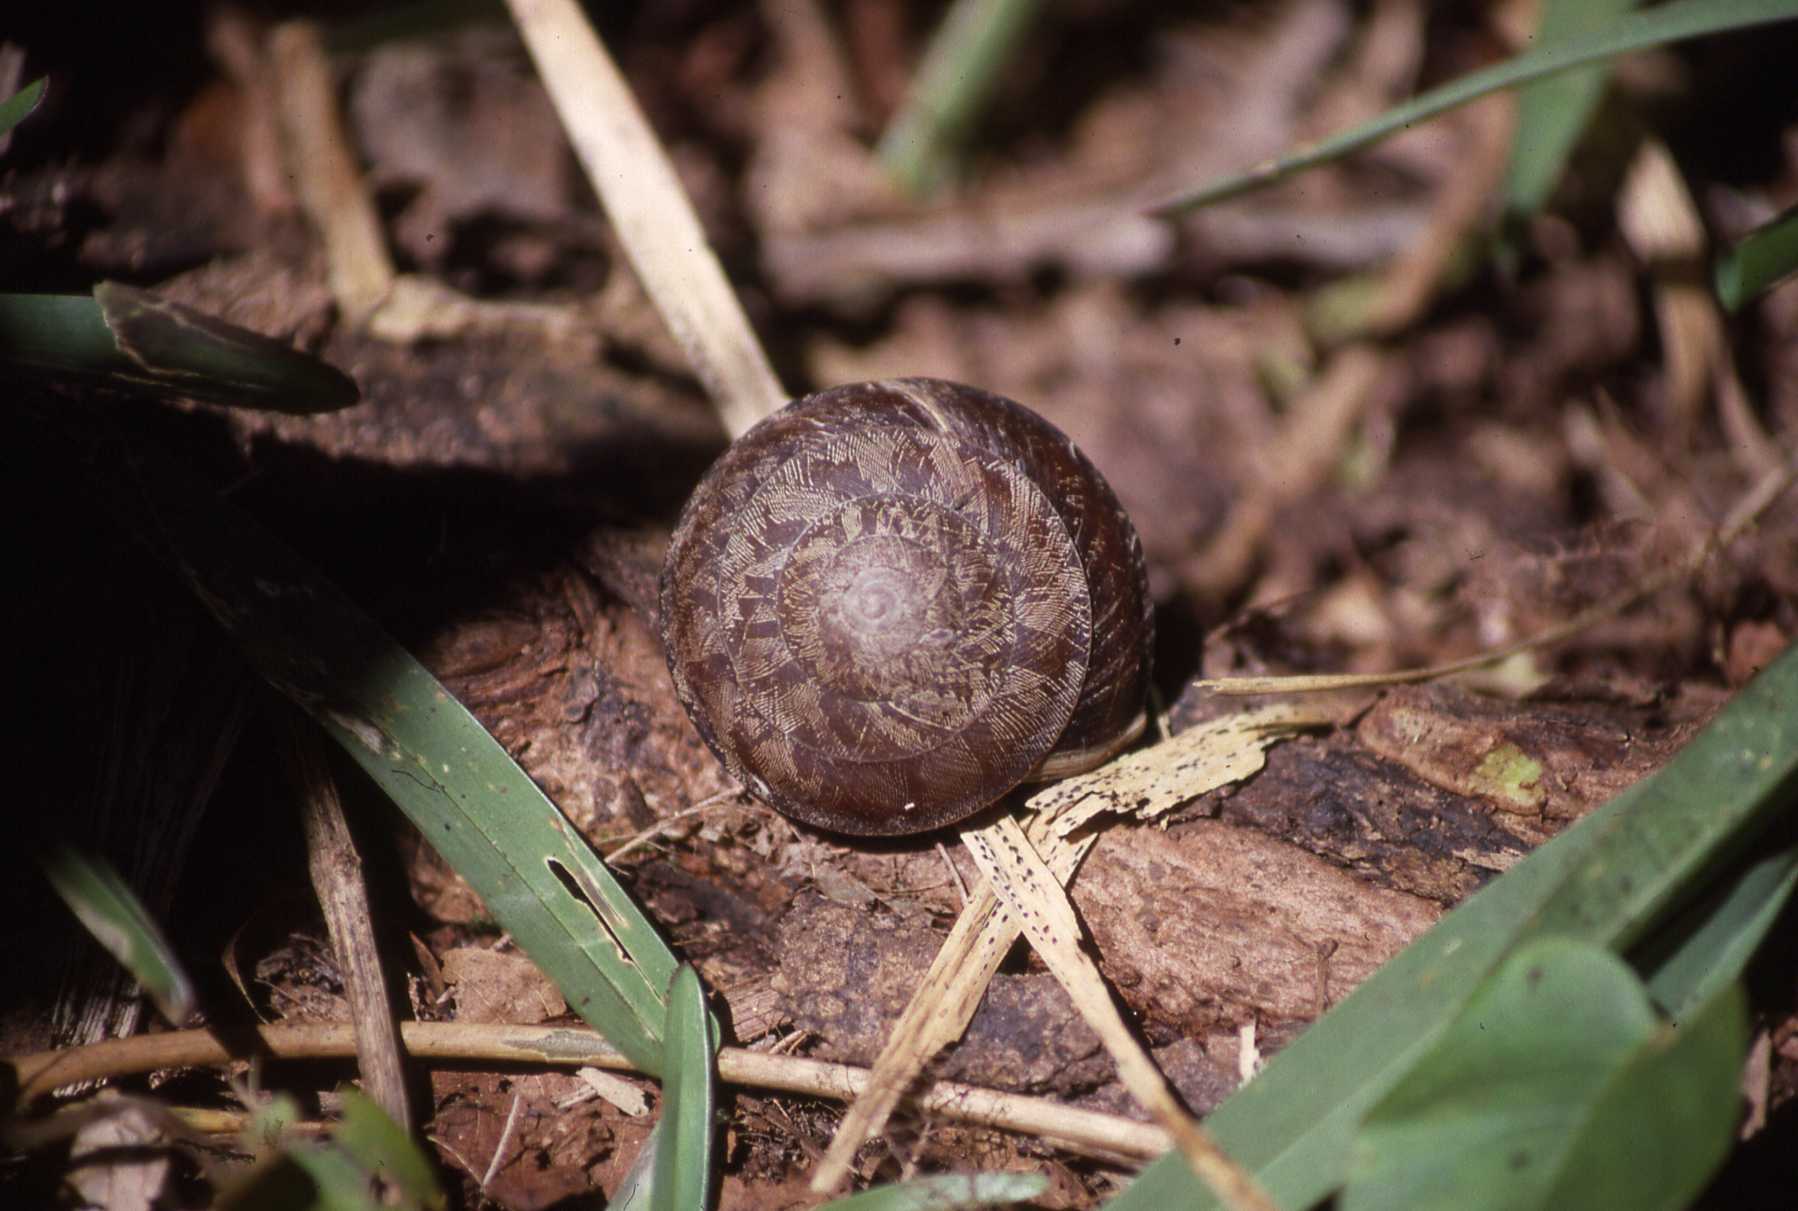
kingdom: Animalia
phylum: Mollusca
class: Gastropoda
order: Stylommatophora
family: Helicarionidae
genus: Pachystyla
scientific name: Pachystyla bicolor
